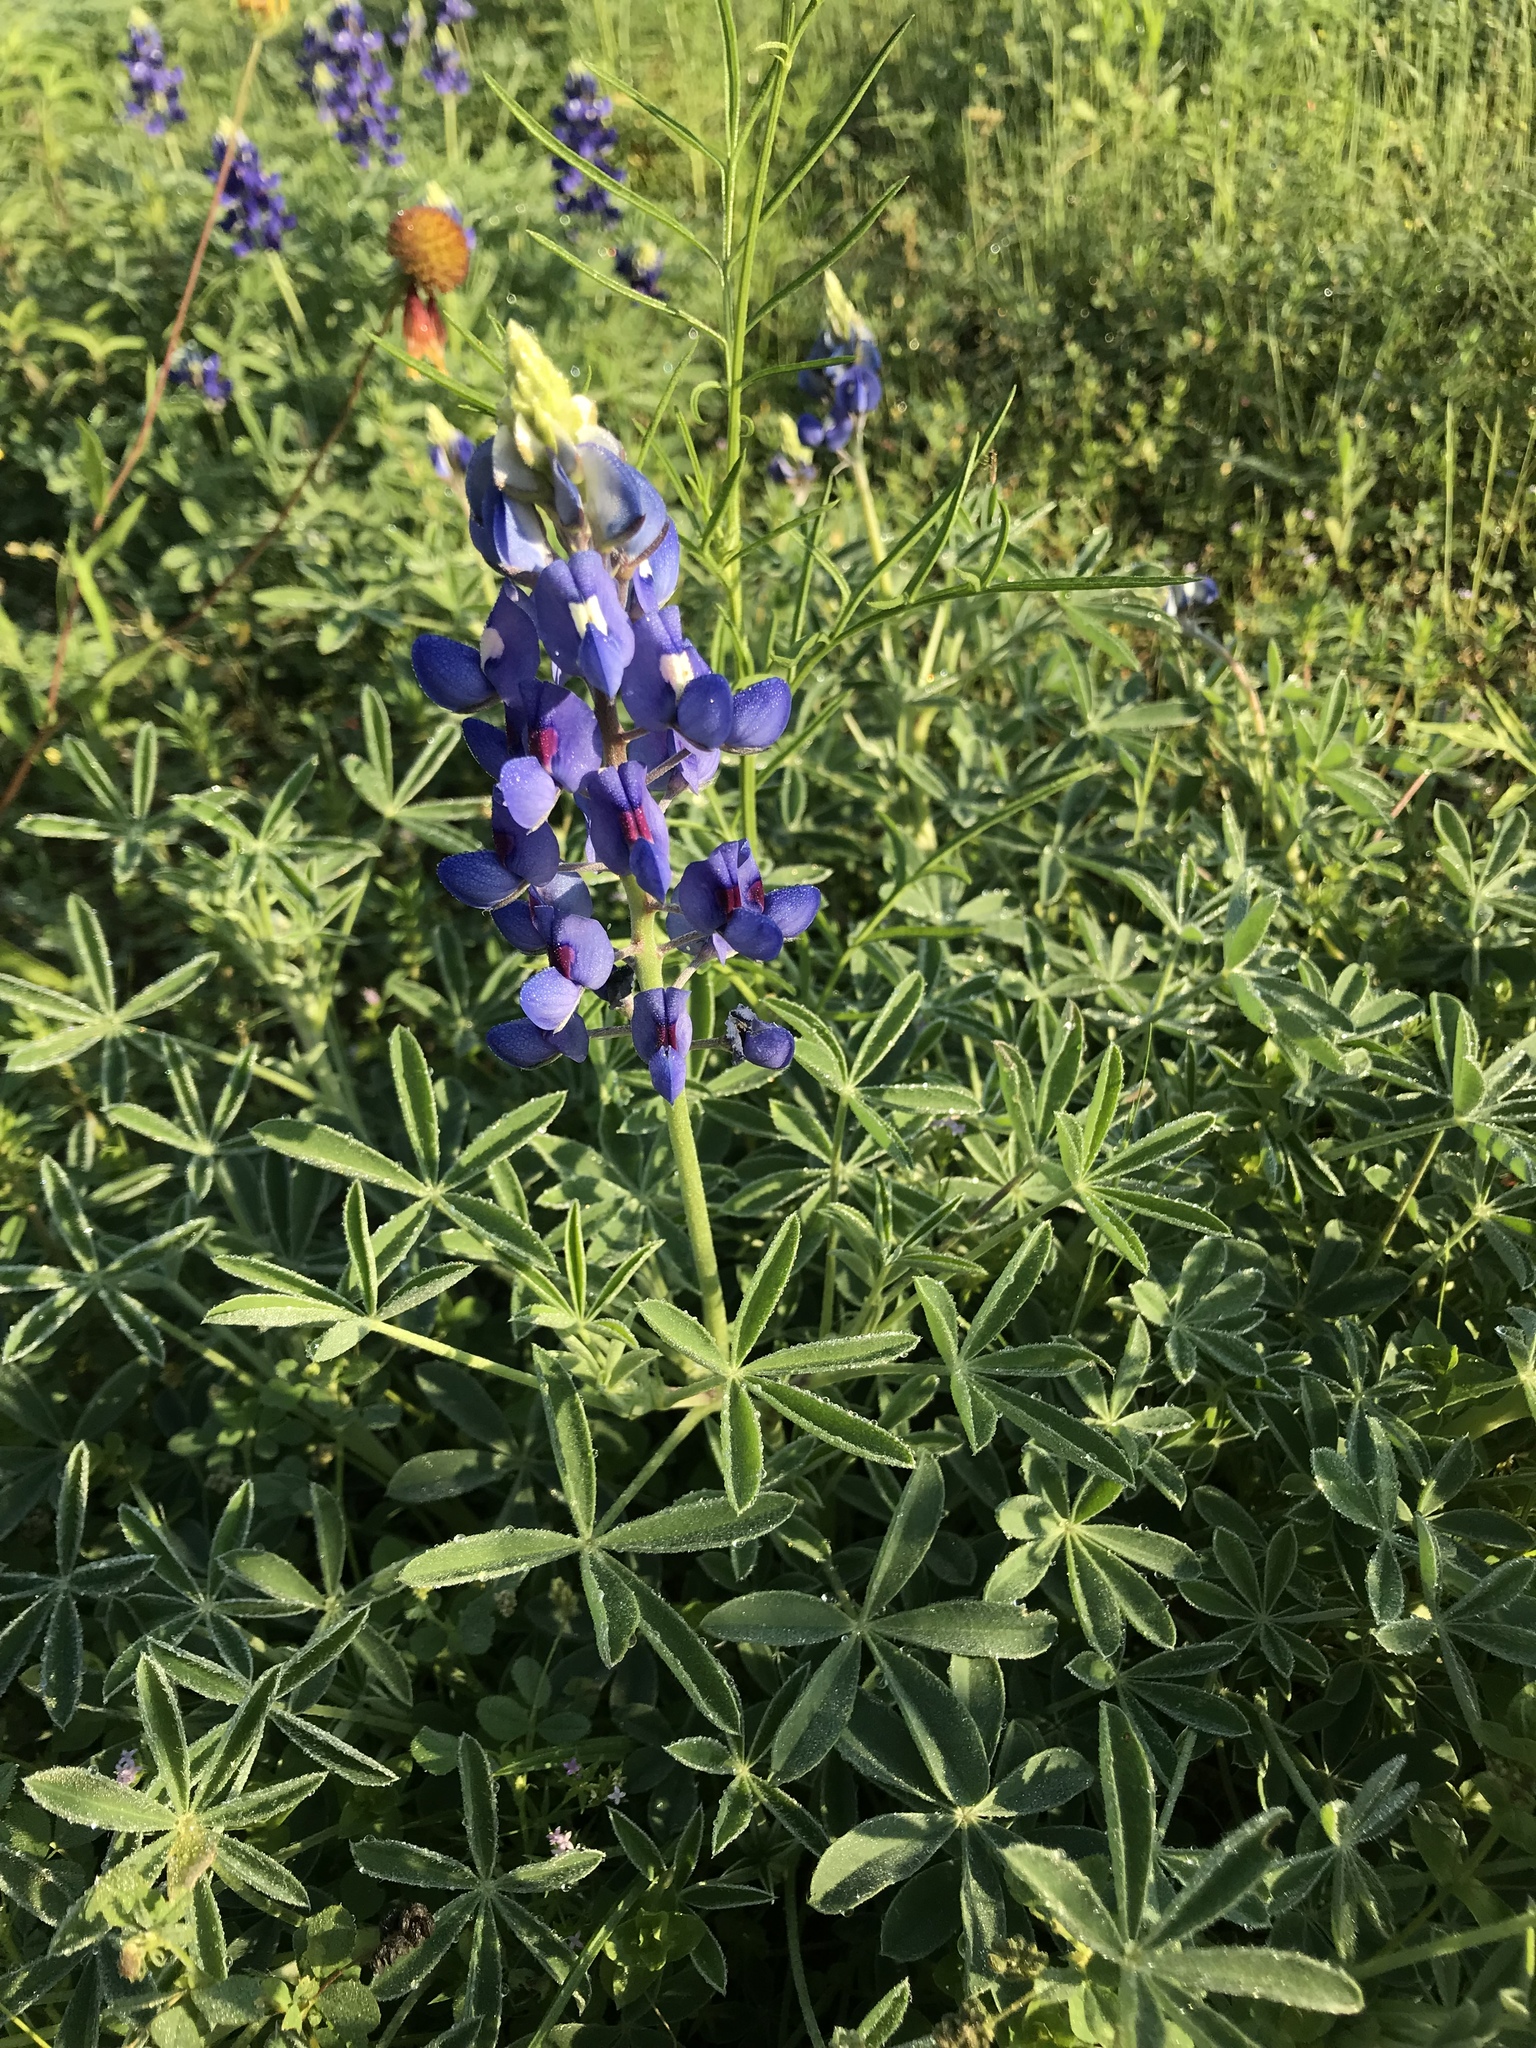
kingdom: Plantae
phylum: Tracheophyta
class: Magnoliopsida
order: Fabales
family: Fabaceae
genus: Lupinus
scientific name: Lupinus texensis
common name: Texas bluebonnet
